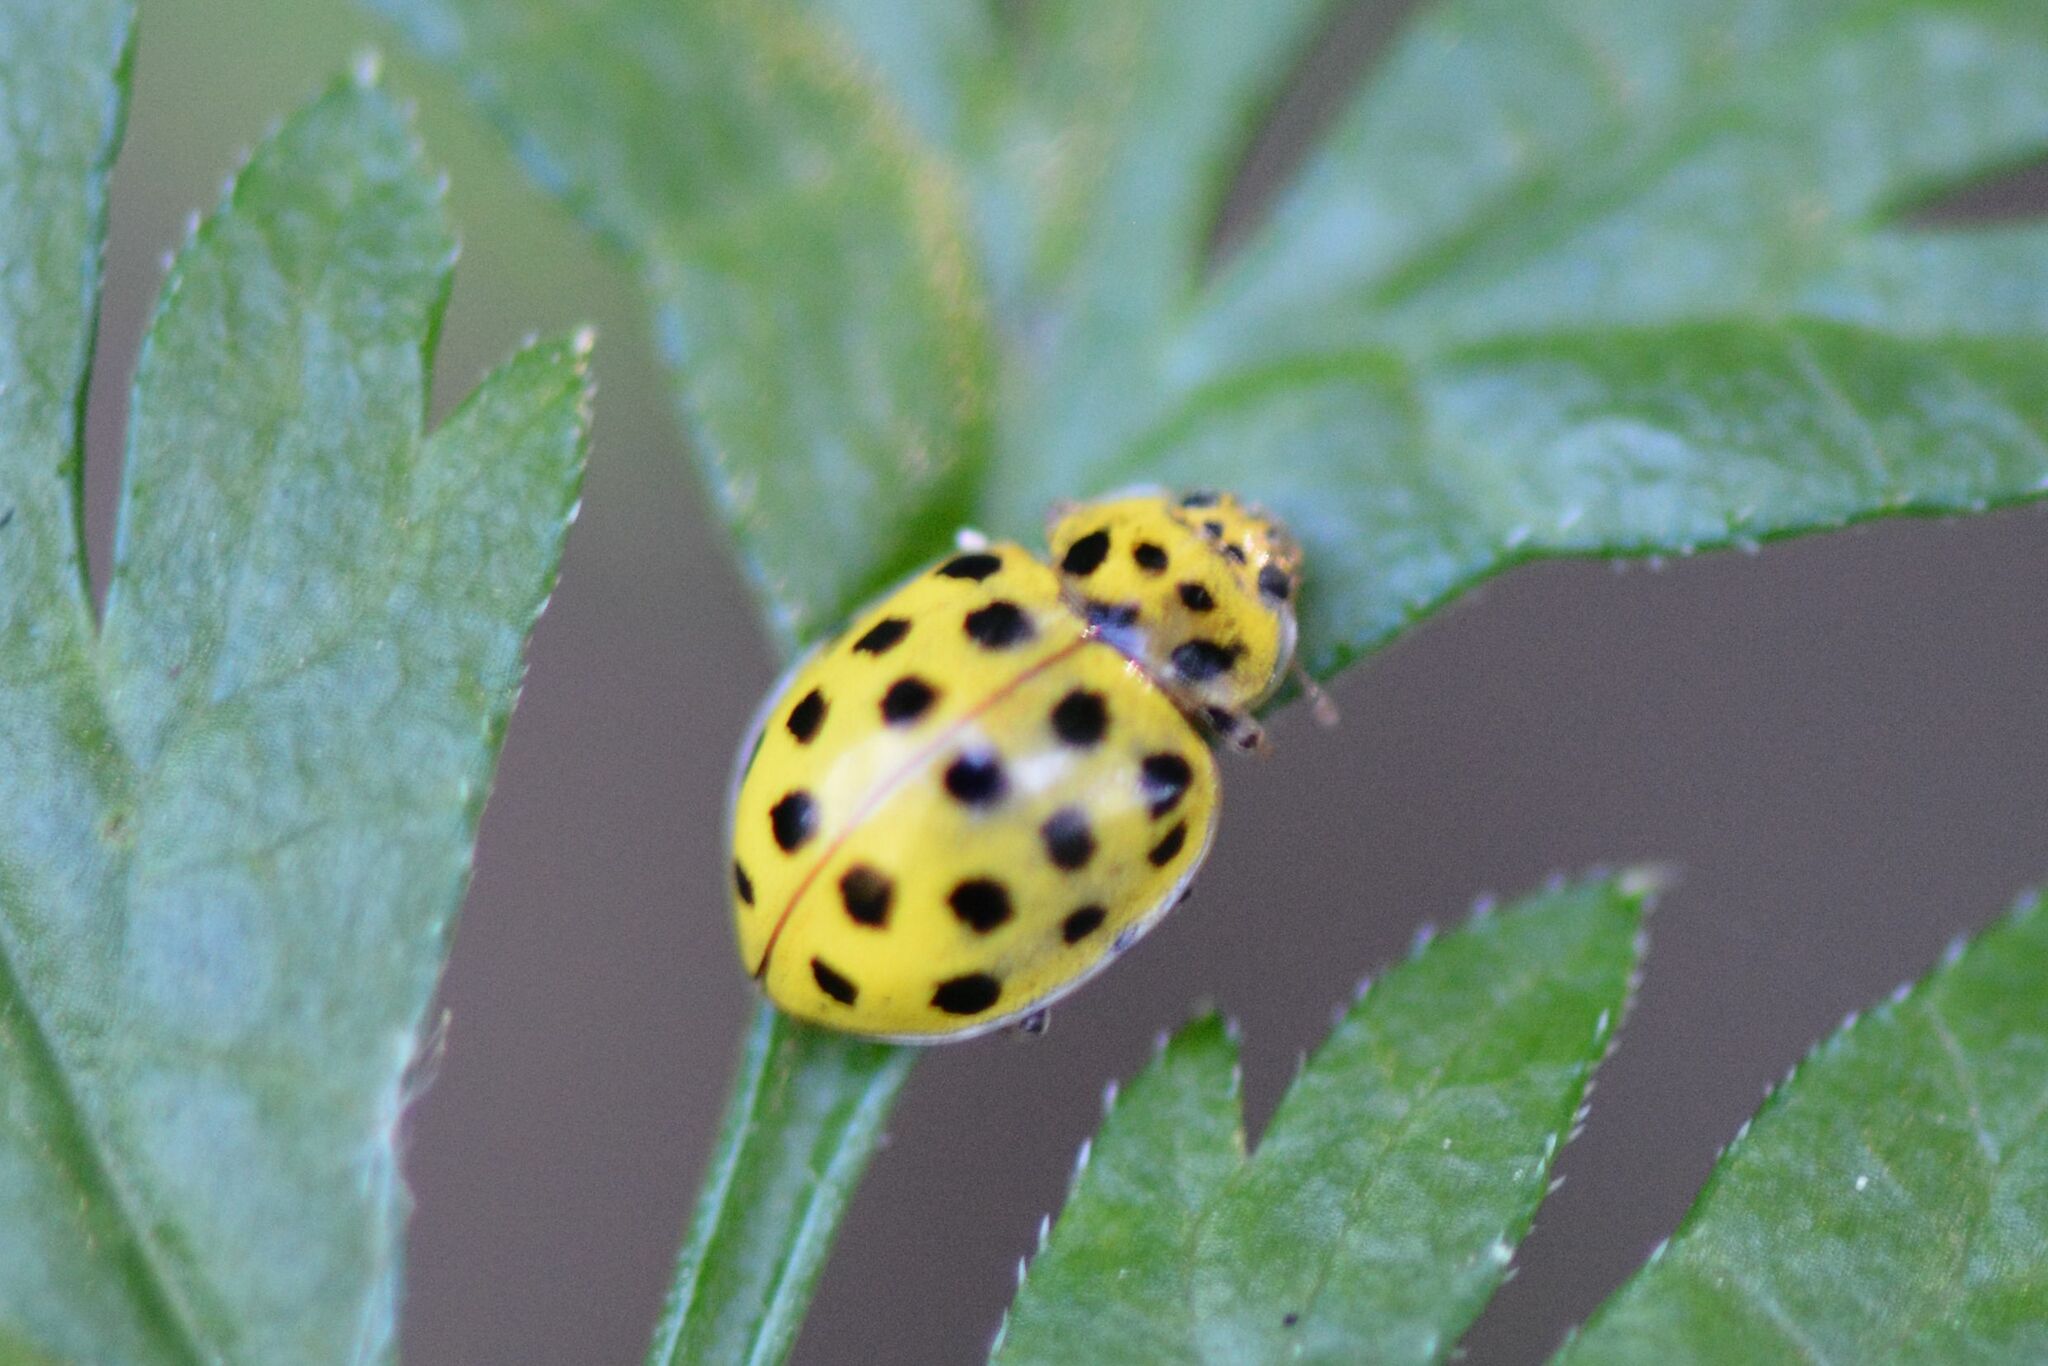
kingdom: Animalia
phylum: Arthropoda
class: Insecta
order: Coleoptera
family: Coccinellidae
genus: Psyllobora
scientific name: Psyllobora vigintiduopunctata
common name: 22-spot ladybird
